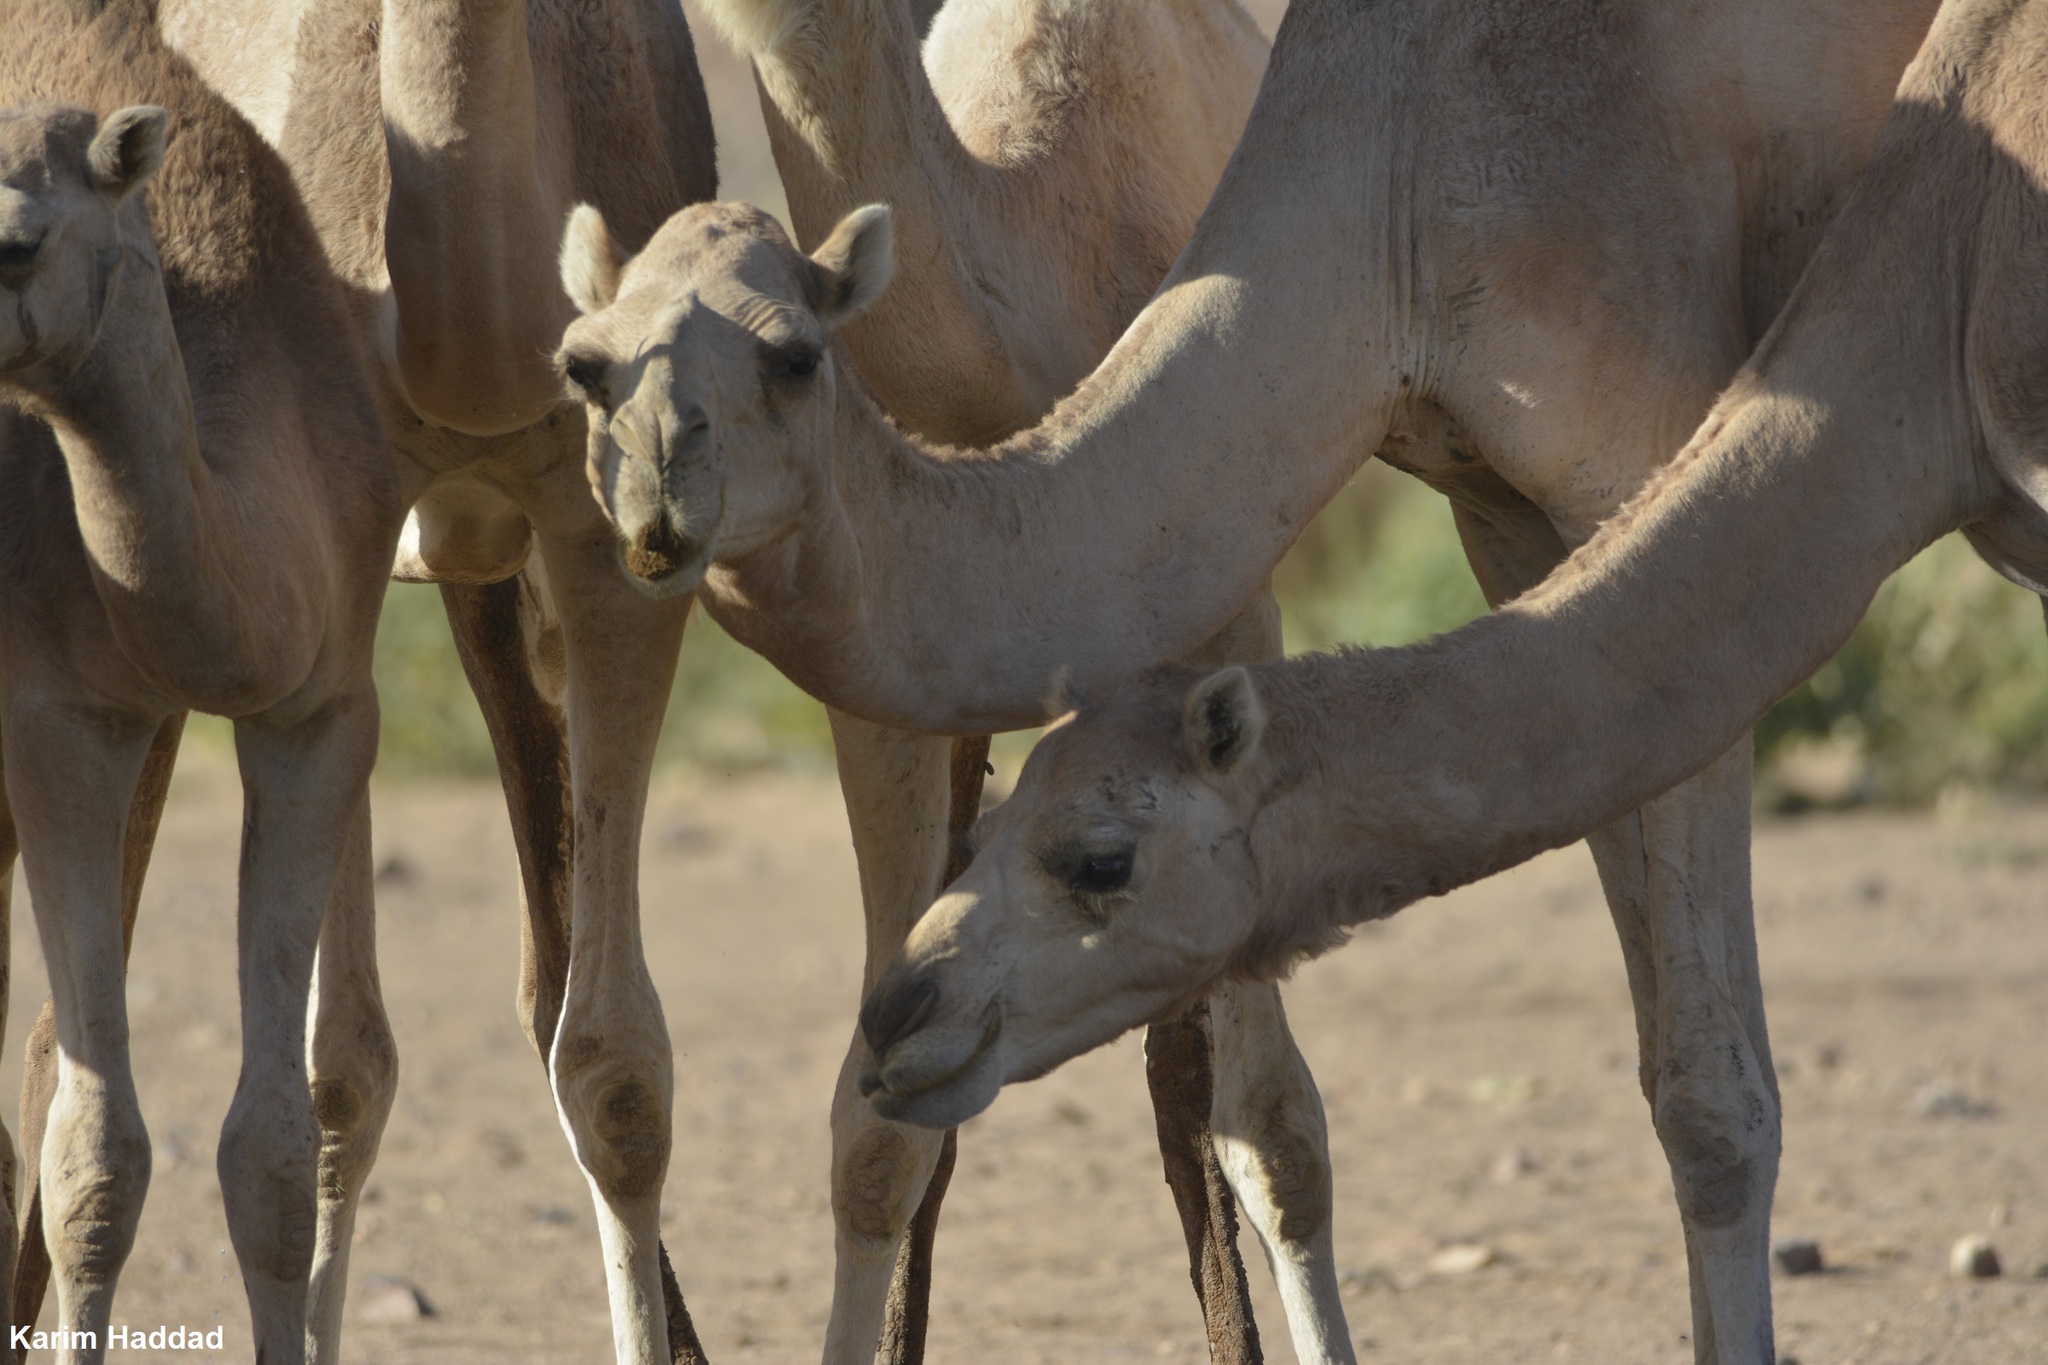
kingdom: Animalia
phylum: Chordata
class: Mammalia
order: Artiodactyla
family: Camelidae
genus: Camelus
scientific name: Camelus dromedarius
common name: One-humped camel
